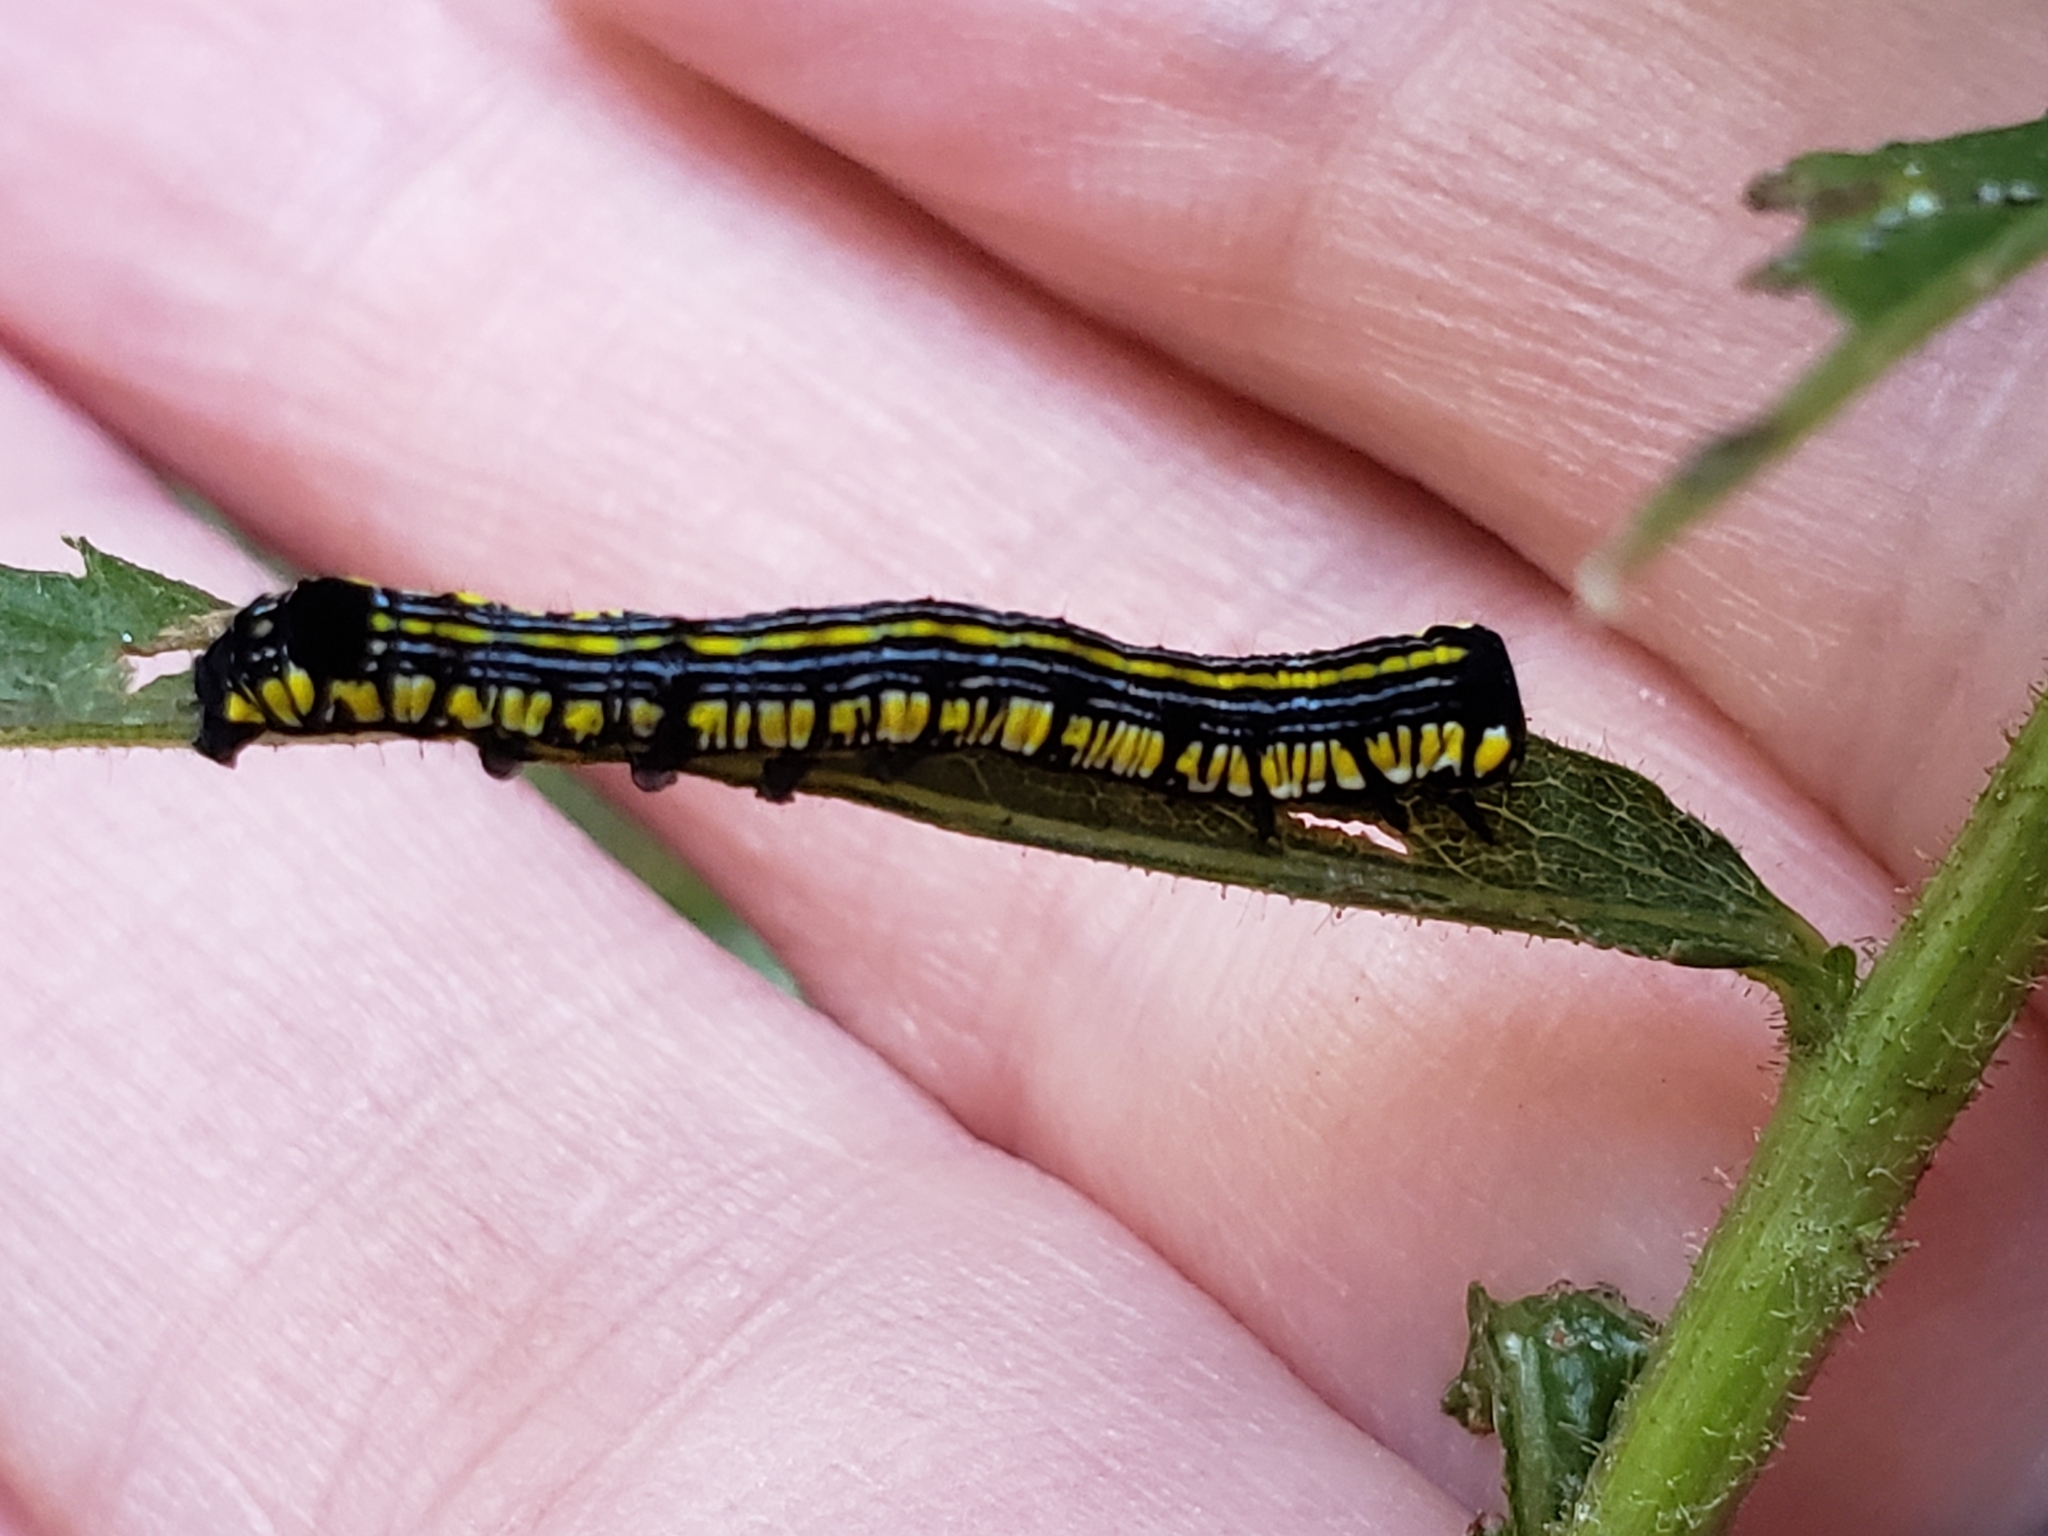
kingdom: Animalia
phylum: Arthropoda
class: Insecta
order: Lepidoptera
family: Noctuidae
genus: Cucullia
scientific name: Cucullia convexipennis
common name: Brown-hooded owlet
